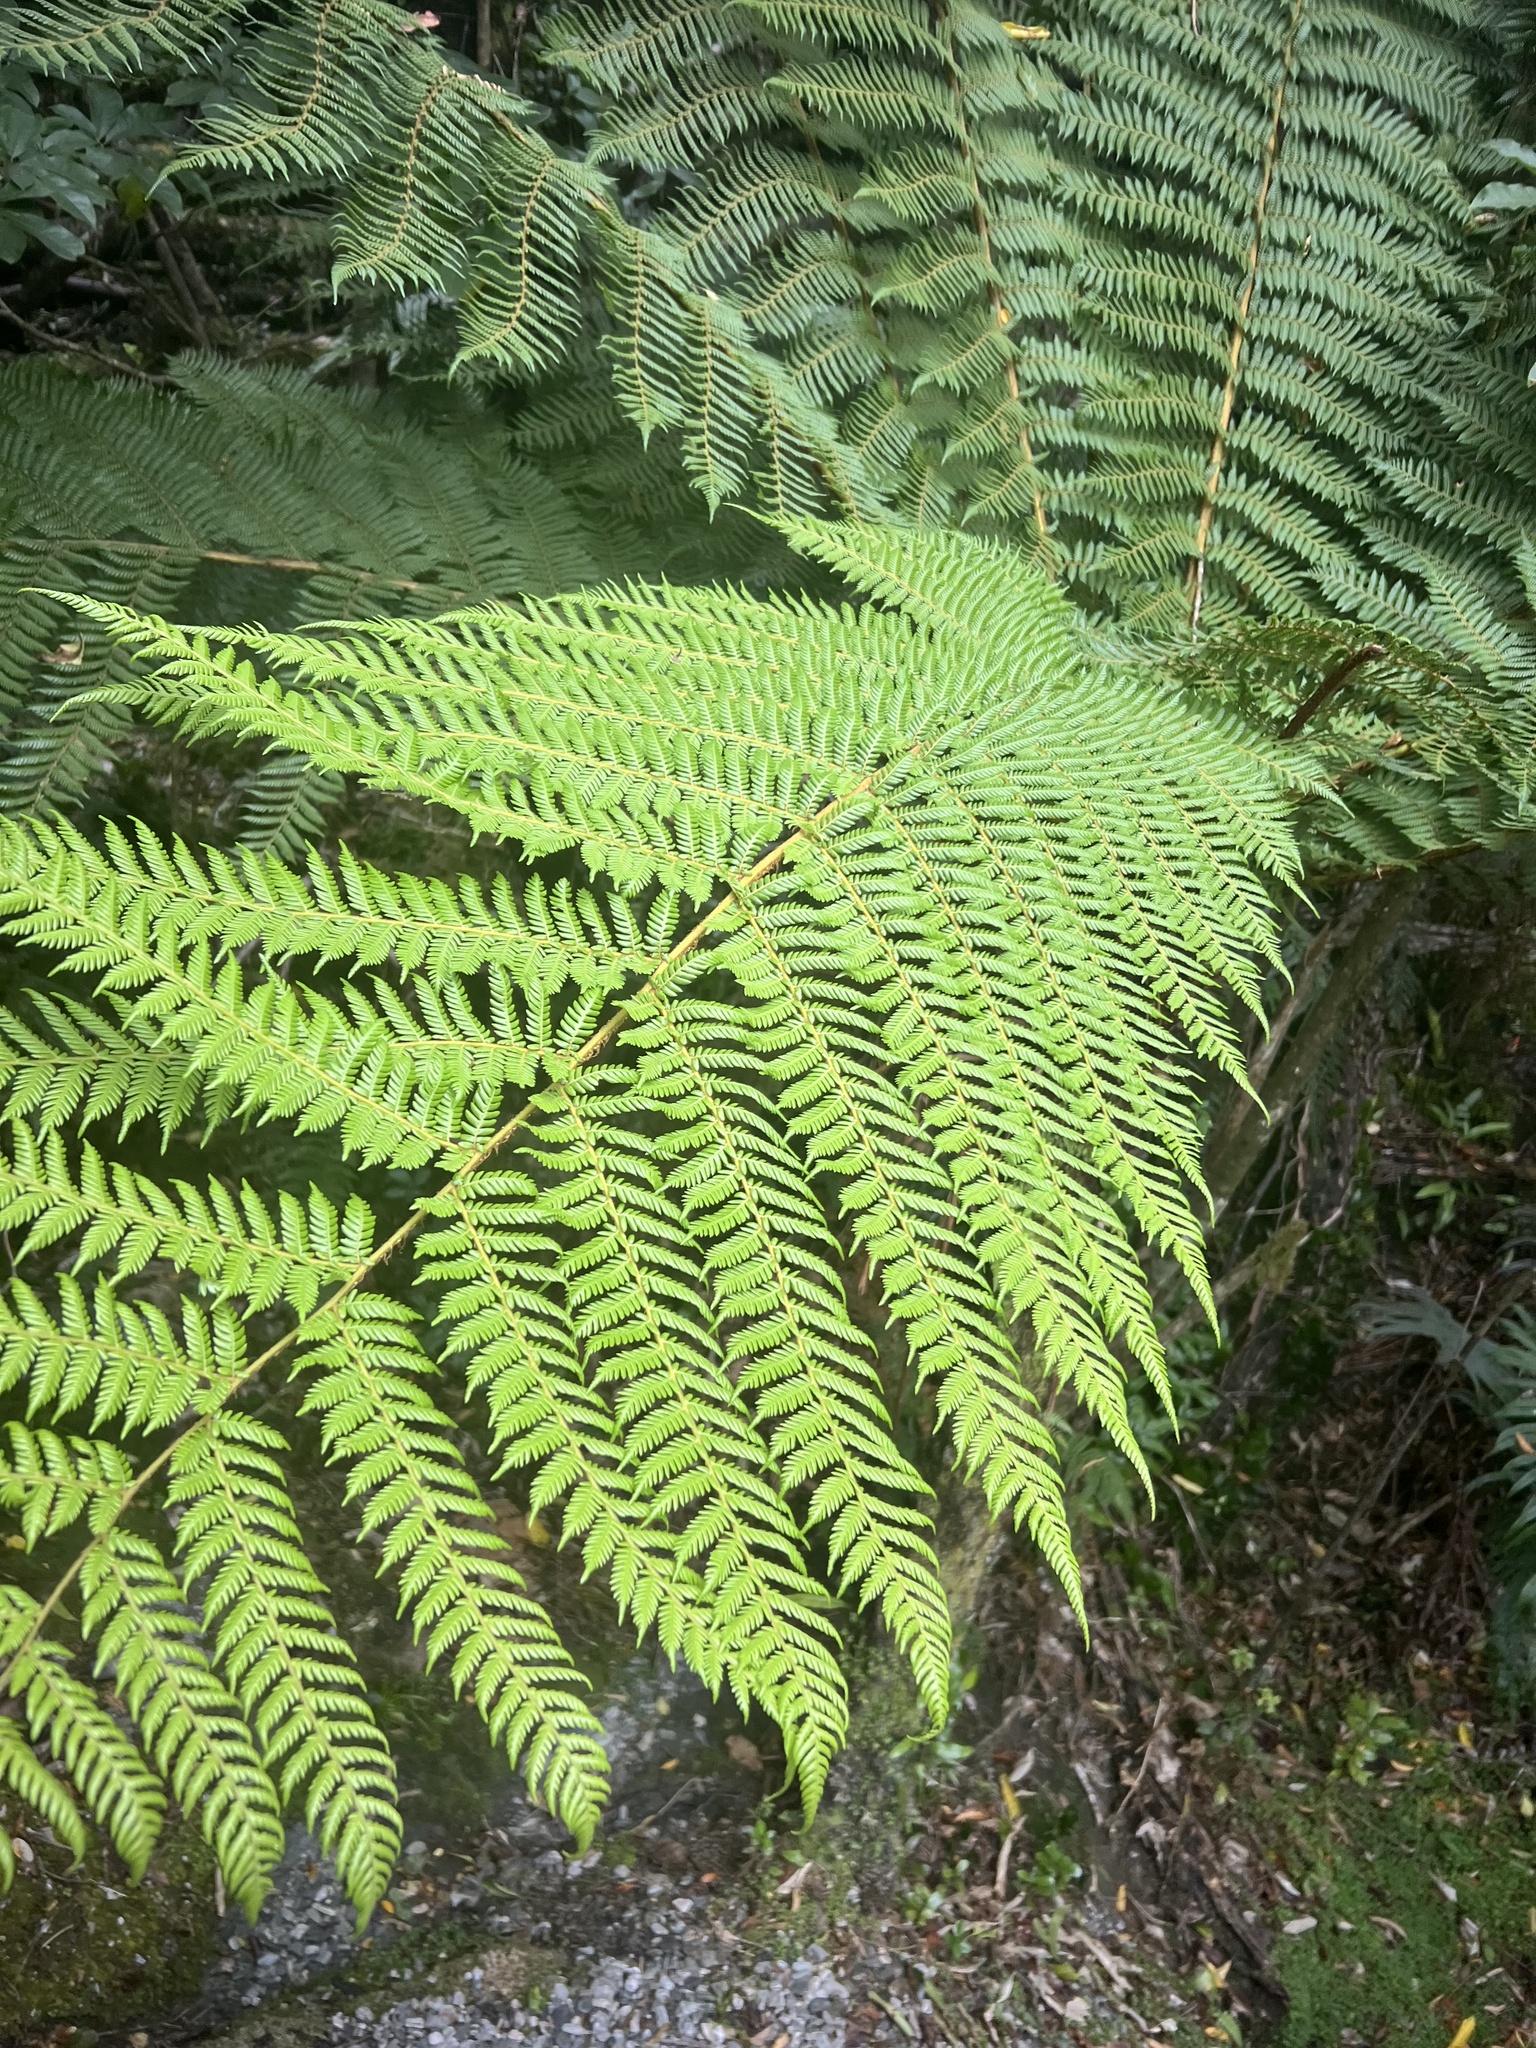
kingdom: Plantae
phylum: Tracheophyta
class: Polypodiopsida
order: Cyatheales
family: Cyatheaceae
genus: Alsophila
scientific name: Alsophila smithii
